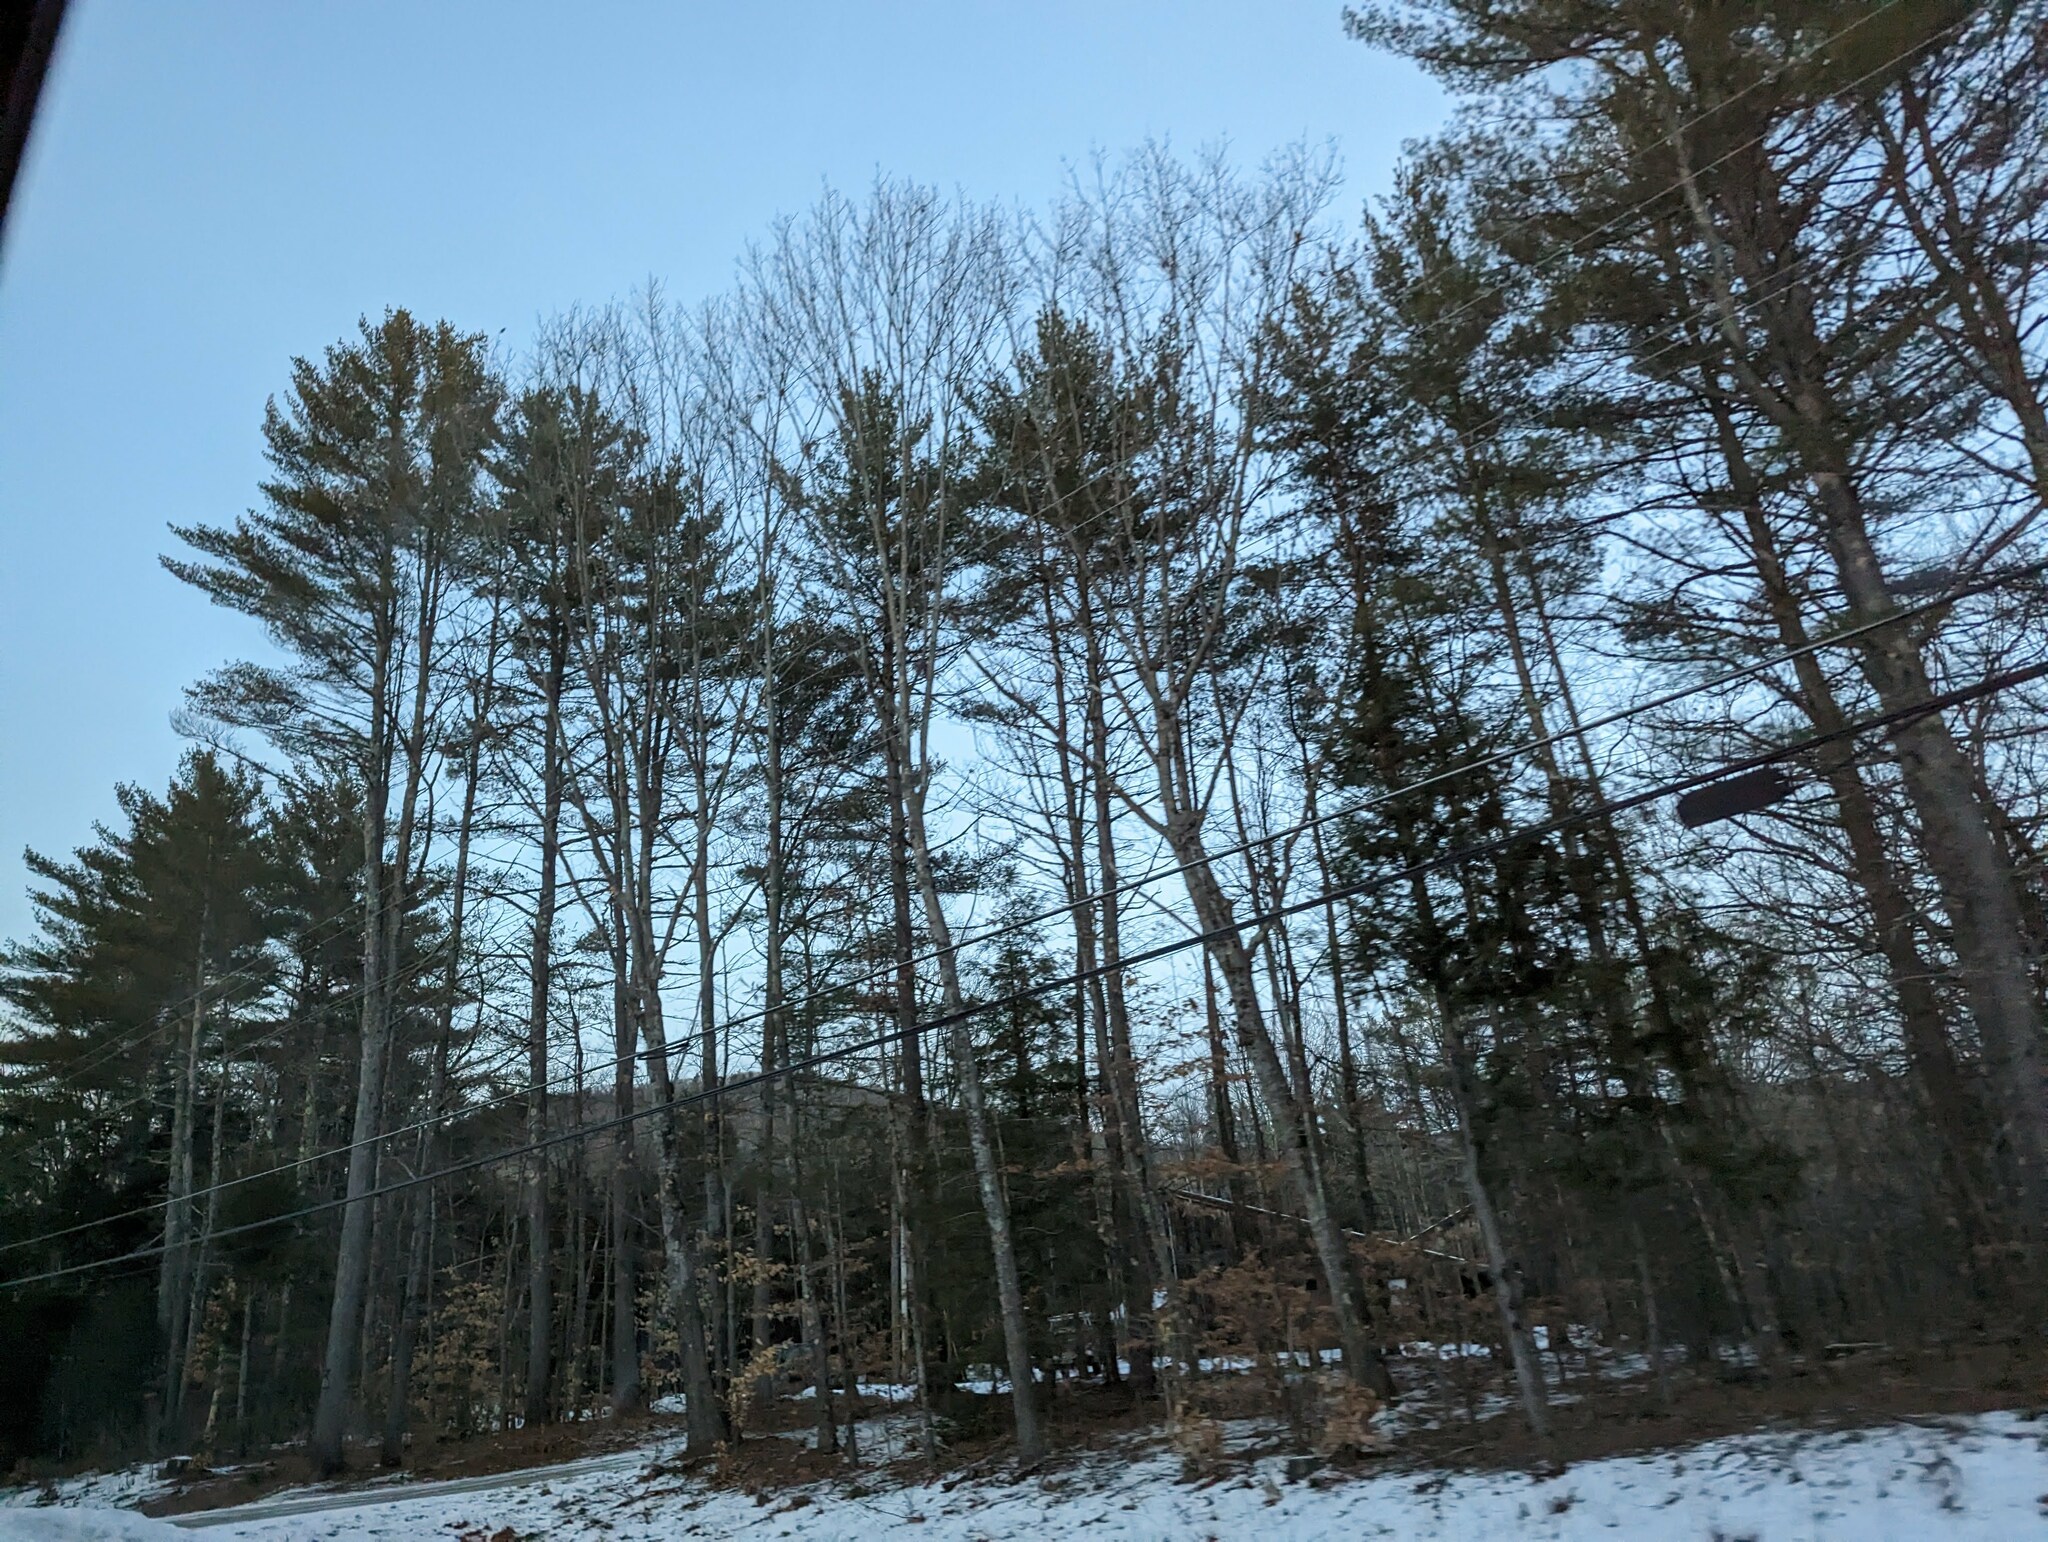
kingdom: Plantae
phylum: Tracheophyta
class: Pinopsida
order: Pinales
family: Pinaceae
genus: Pinus
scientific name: Pinus strobus
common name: Weymouth pine
